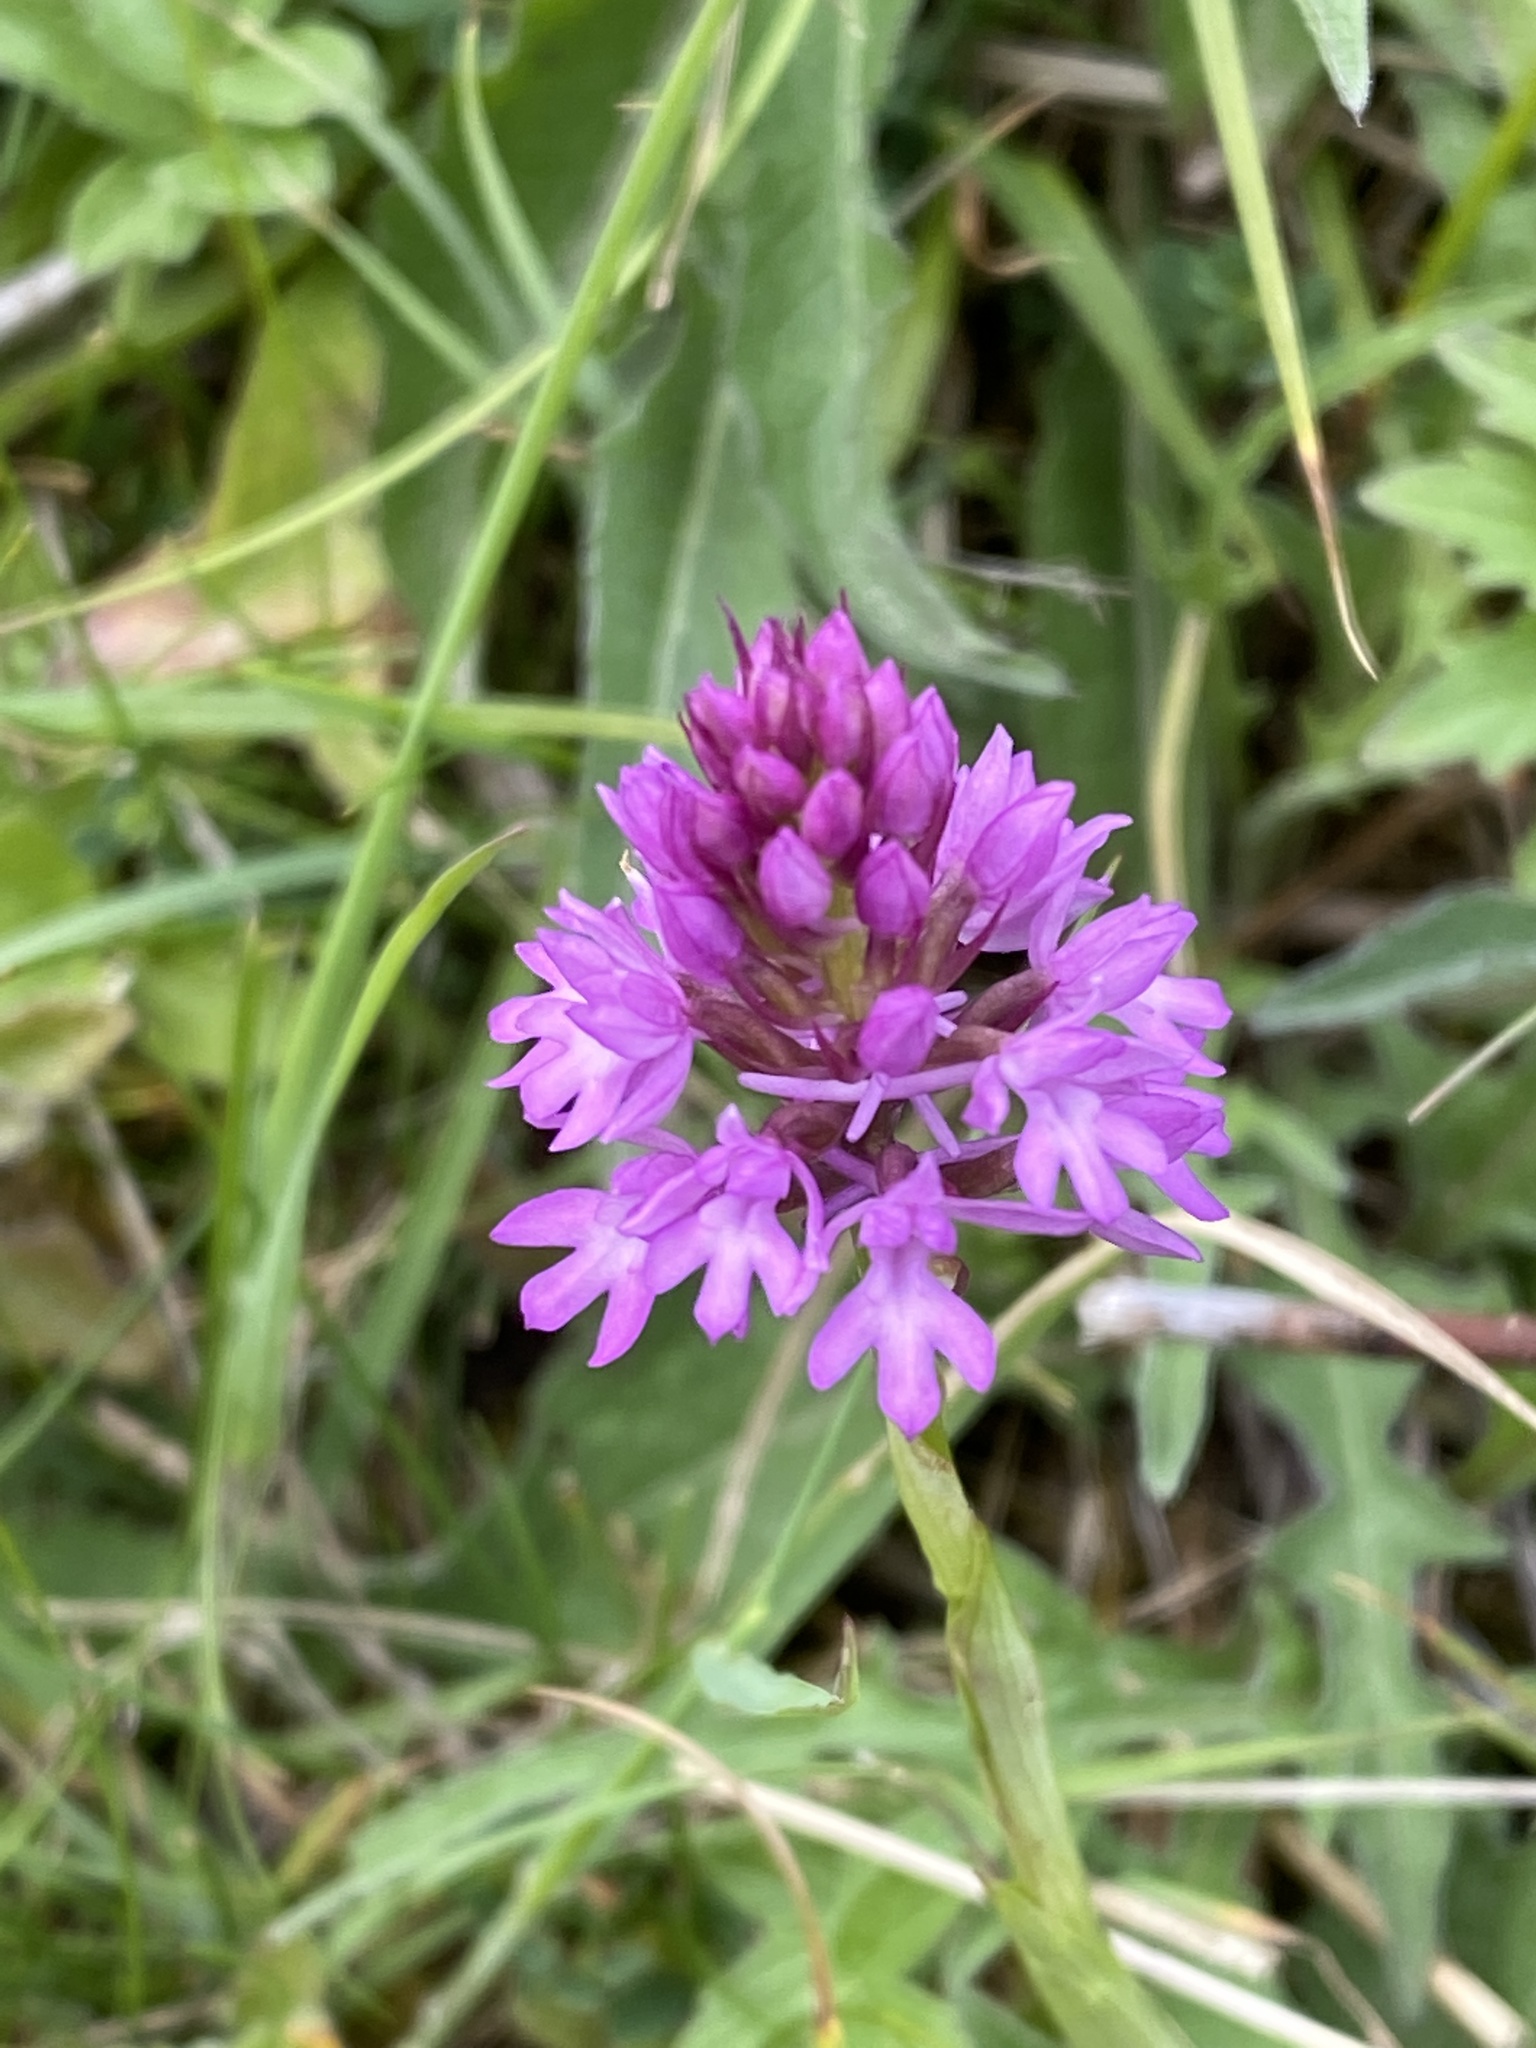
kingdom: Plantae
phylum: Tracheophyta
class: Liliopsida
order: Asparagales
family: Orchidaceae
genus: Anacamptis
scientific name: Anacamptis pyramidalis
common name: Pyramidal orchid
